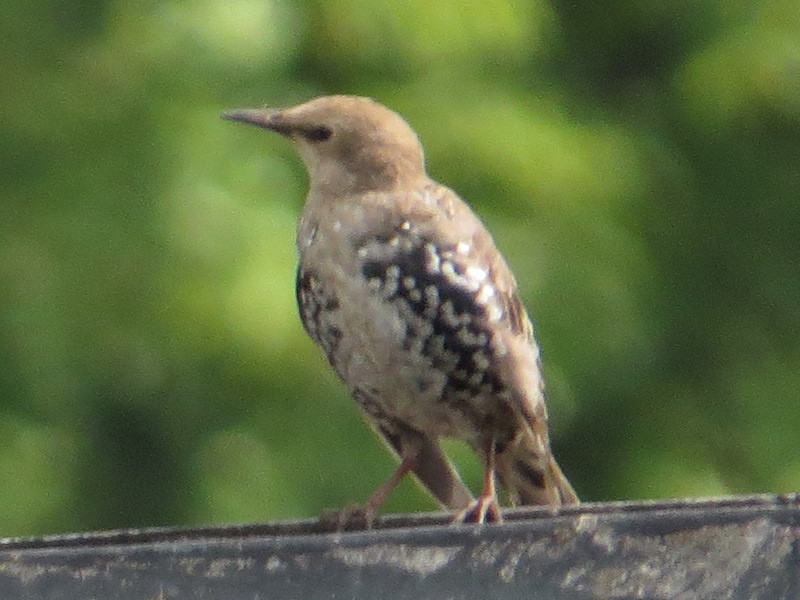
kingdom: Animalia
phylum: Chordata
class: Aves
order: Passeriformes
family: Sturnidae
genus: Sturnus
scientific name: Sturnus vulgaris
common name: Common starling
